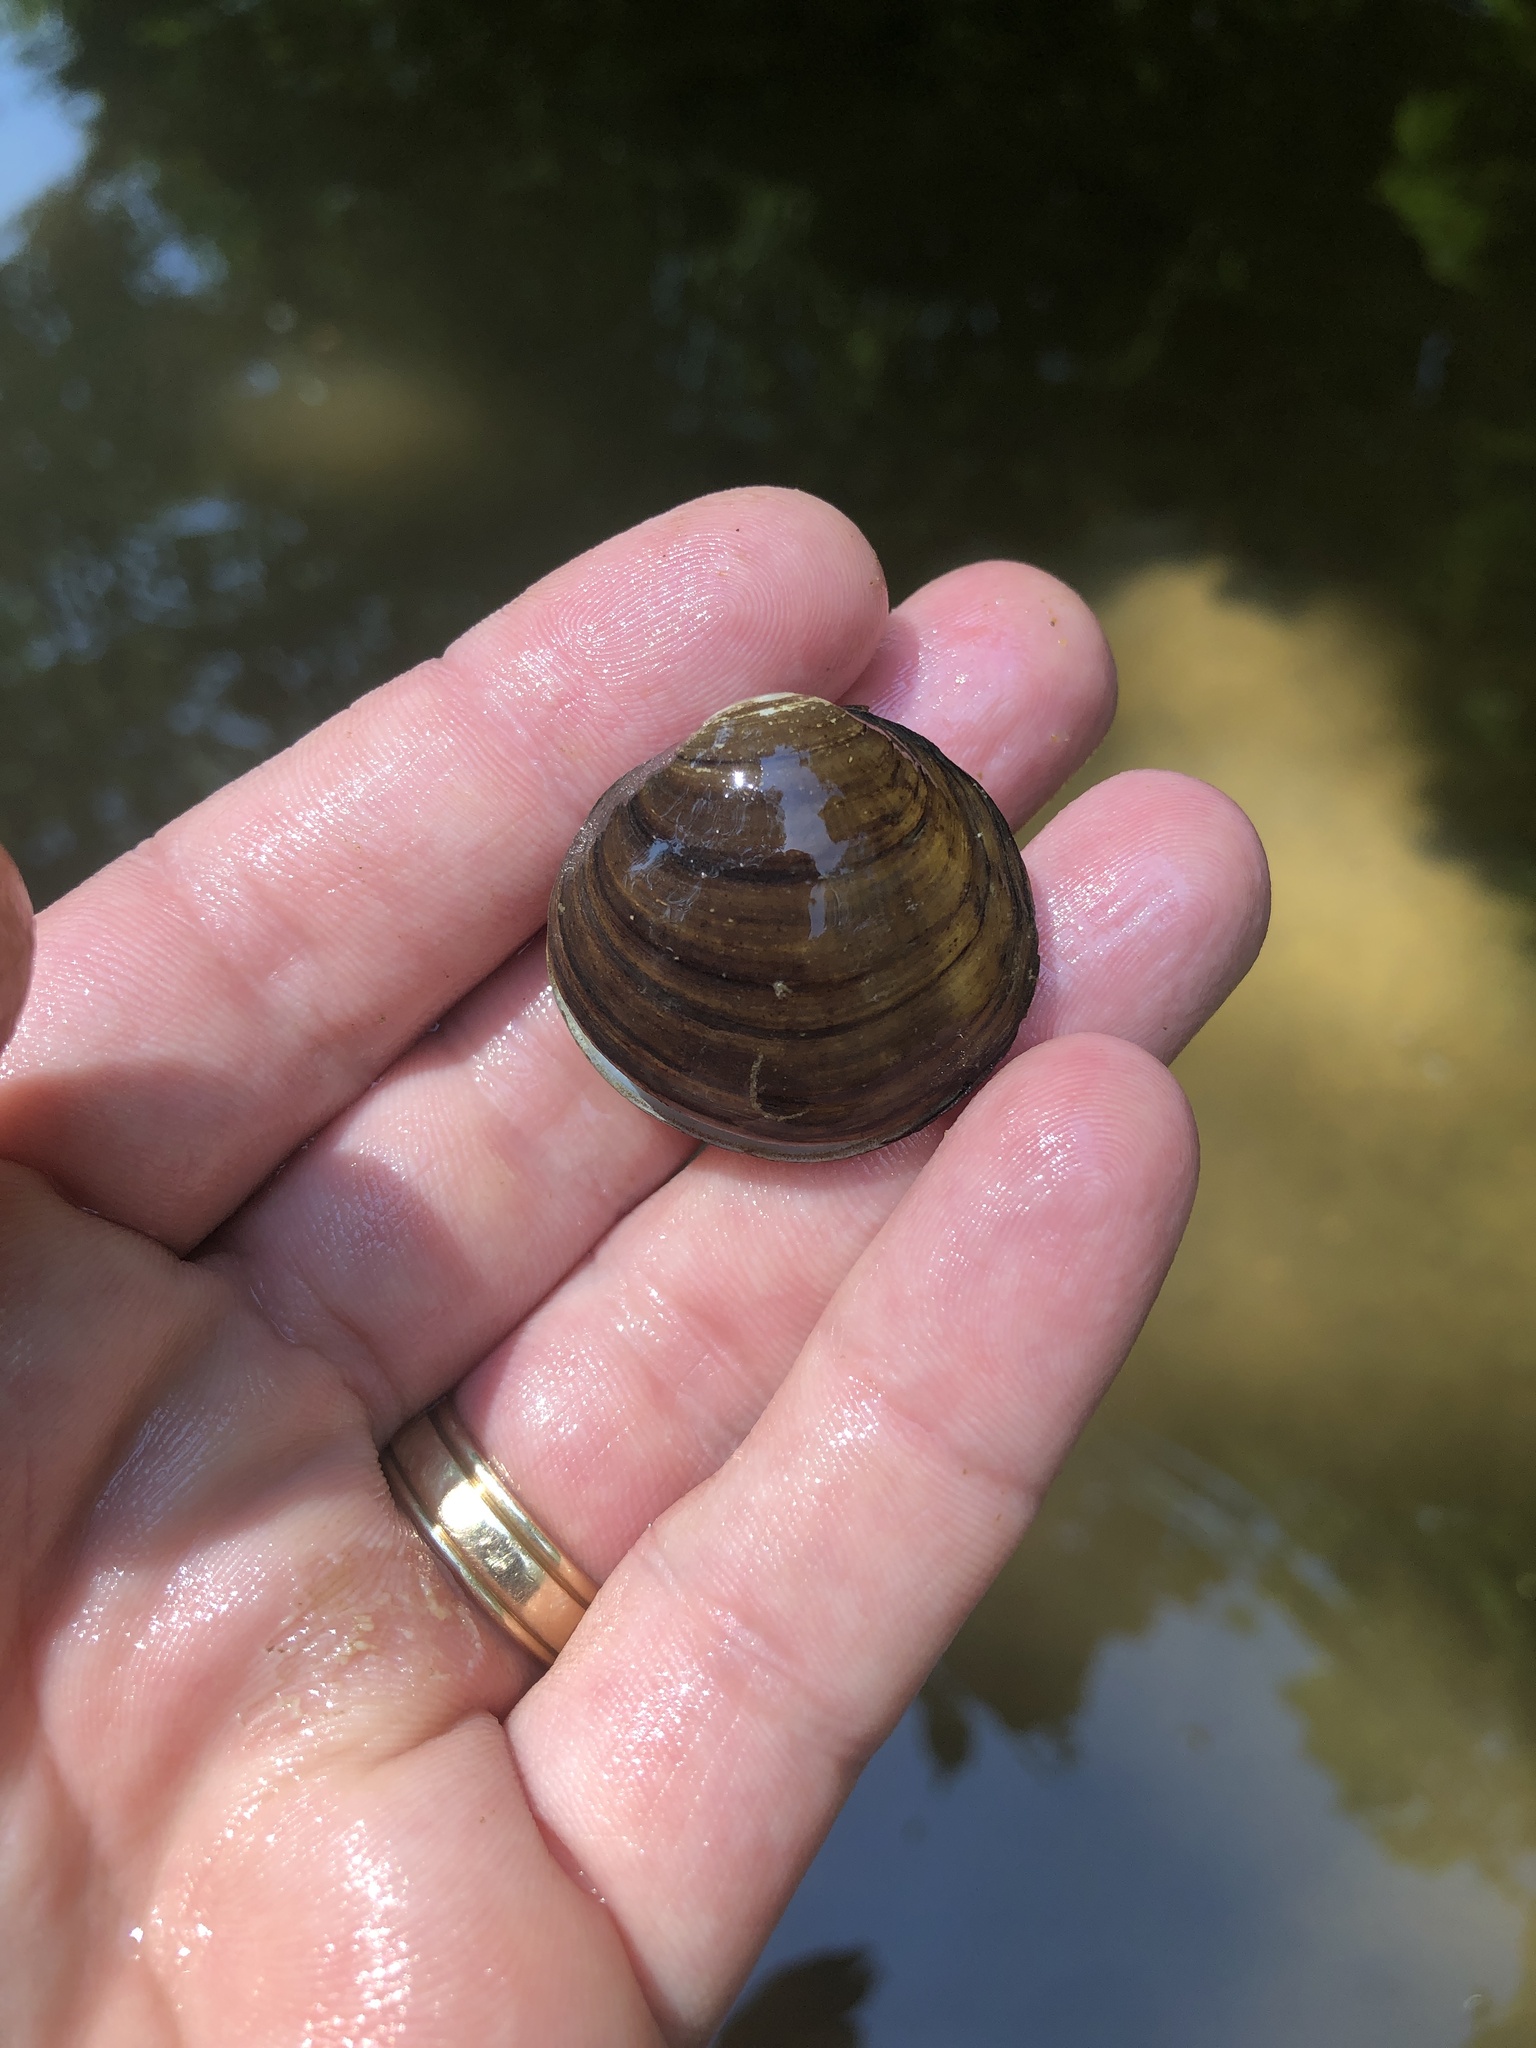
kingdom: Animalia
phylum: Mollusca
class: Bivalvia
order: Unionida
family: Unionidae
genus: Obovaria
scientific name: Obovaria subrotunda
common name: Round hickorynut
